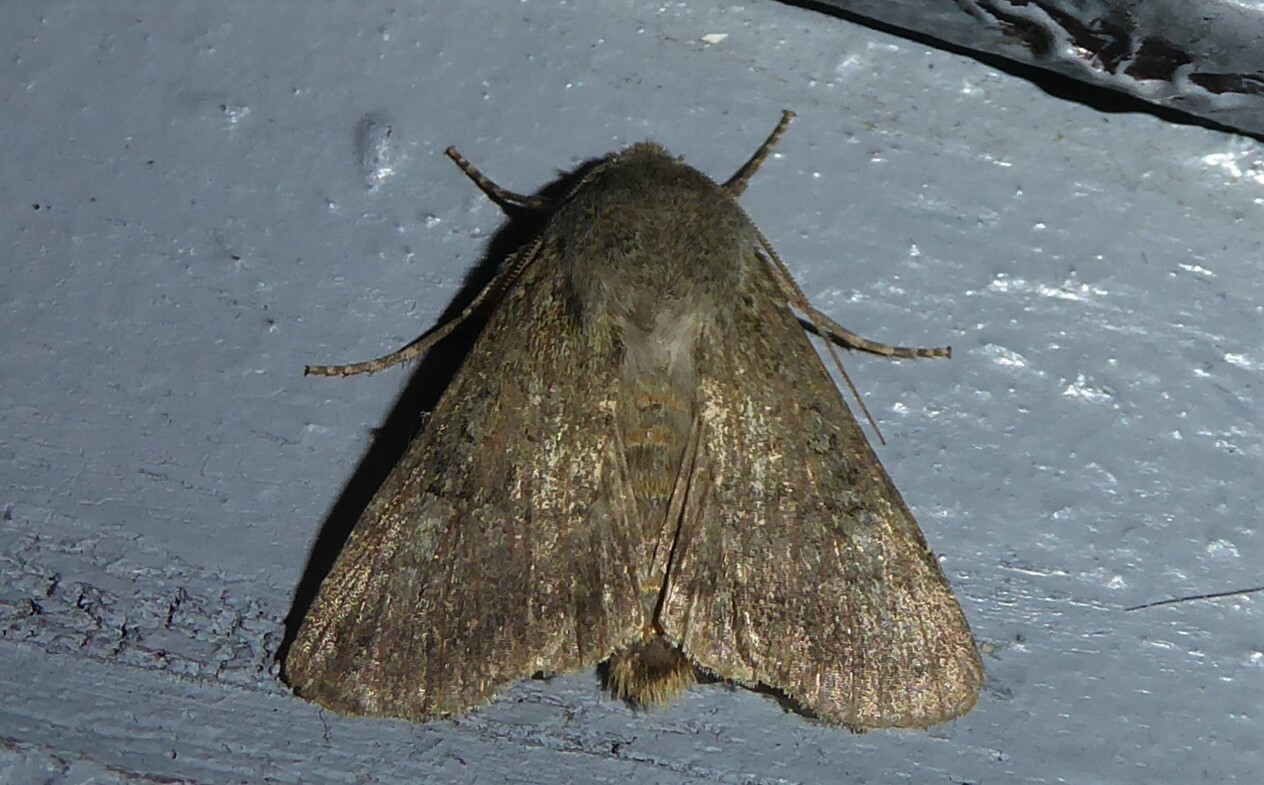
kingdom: Animalia
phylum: Arthropoda
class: Insecta
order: Lepidoptera
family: Noctuidae
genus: Ichneutica
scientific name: Ichneutica moderata
